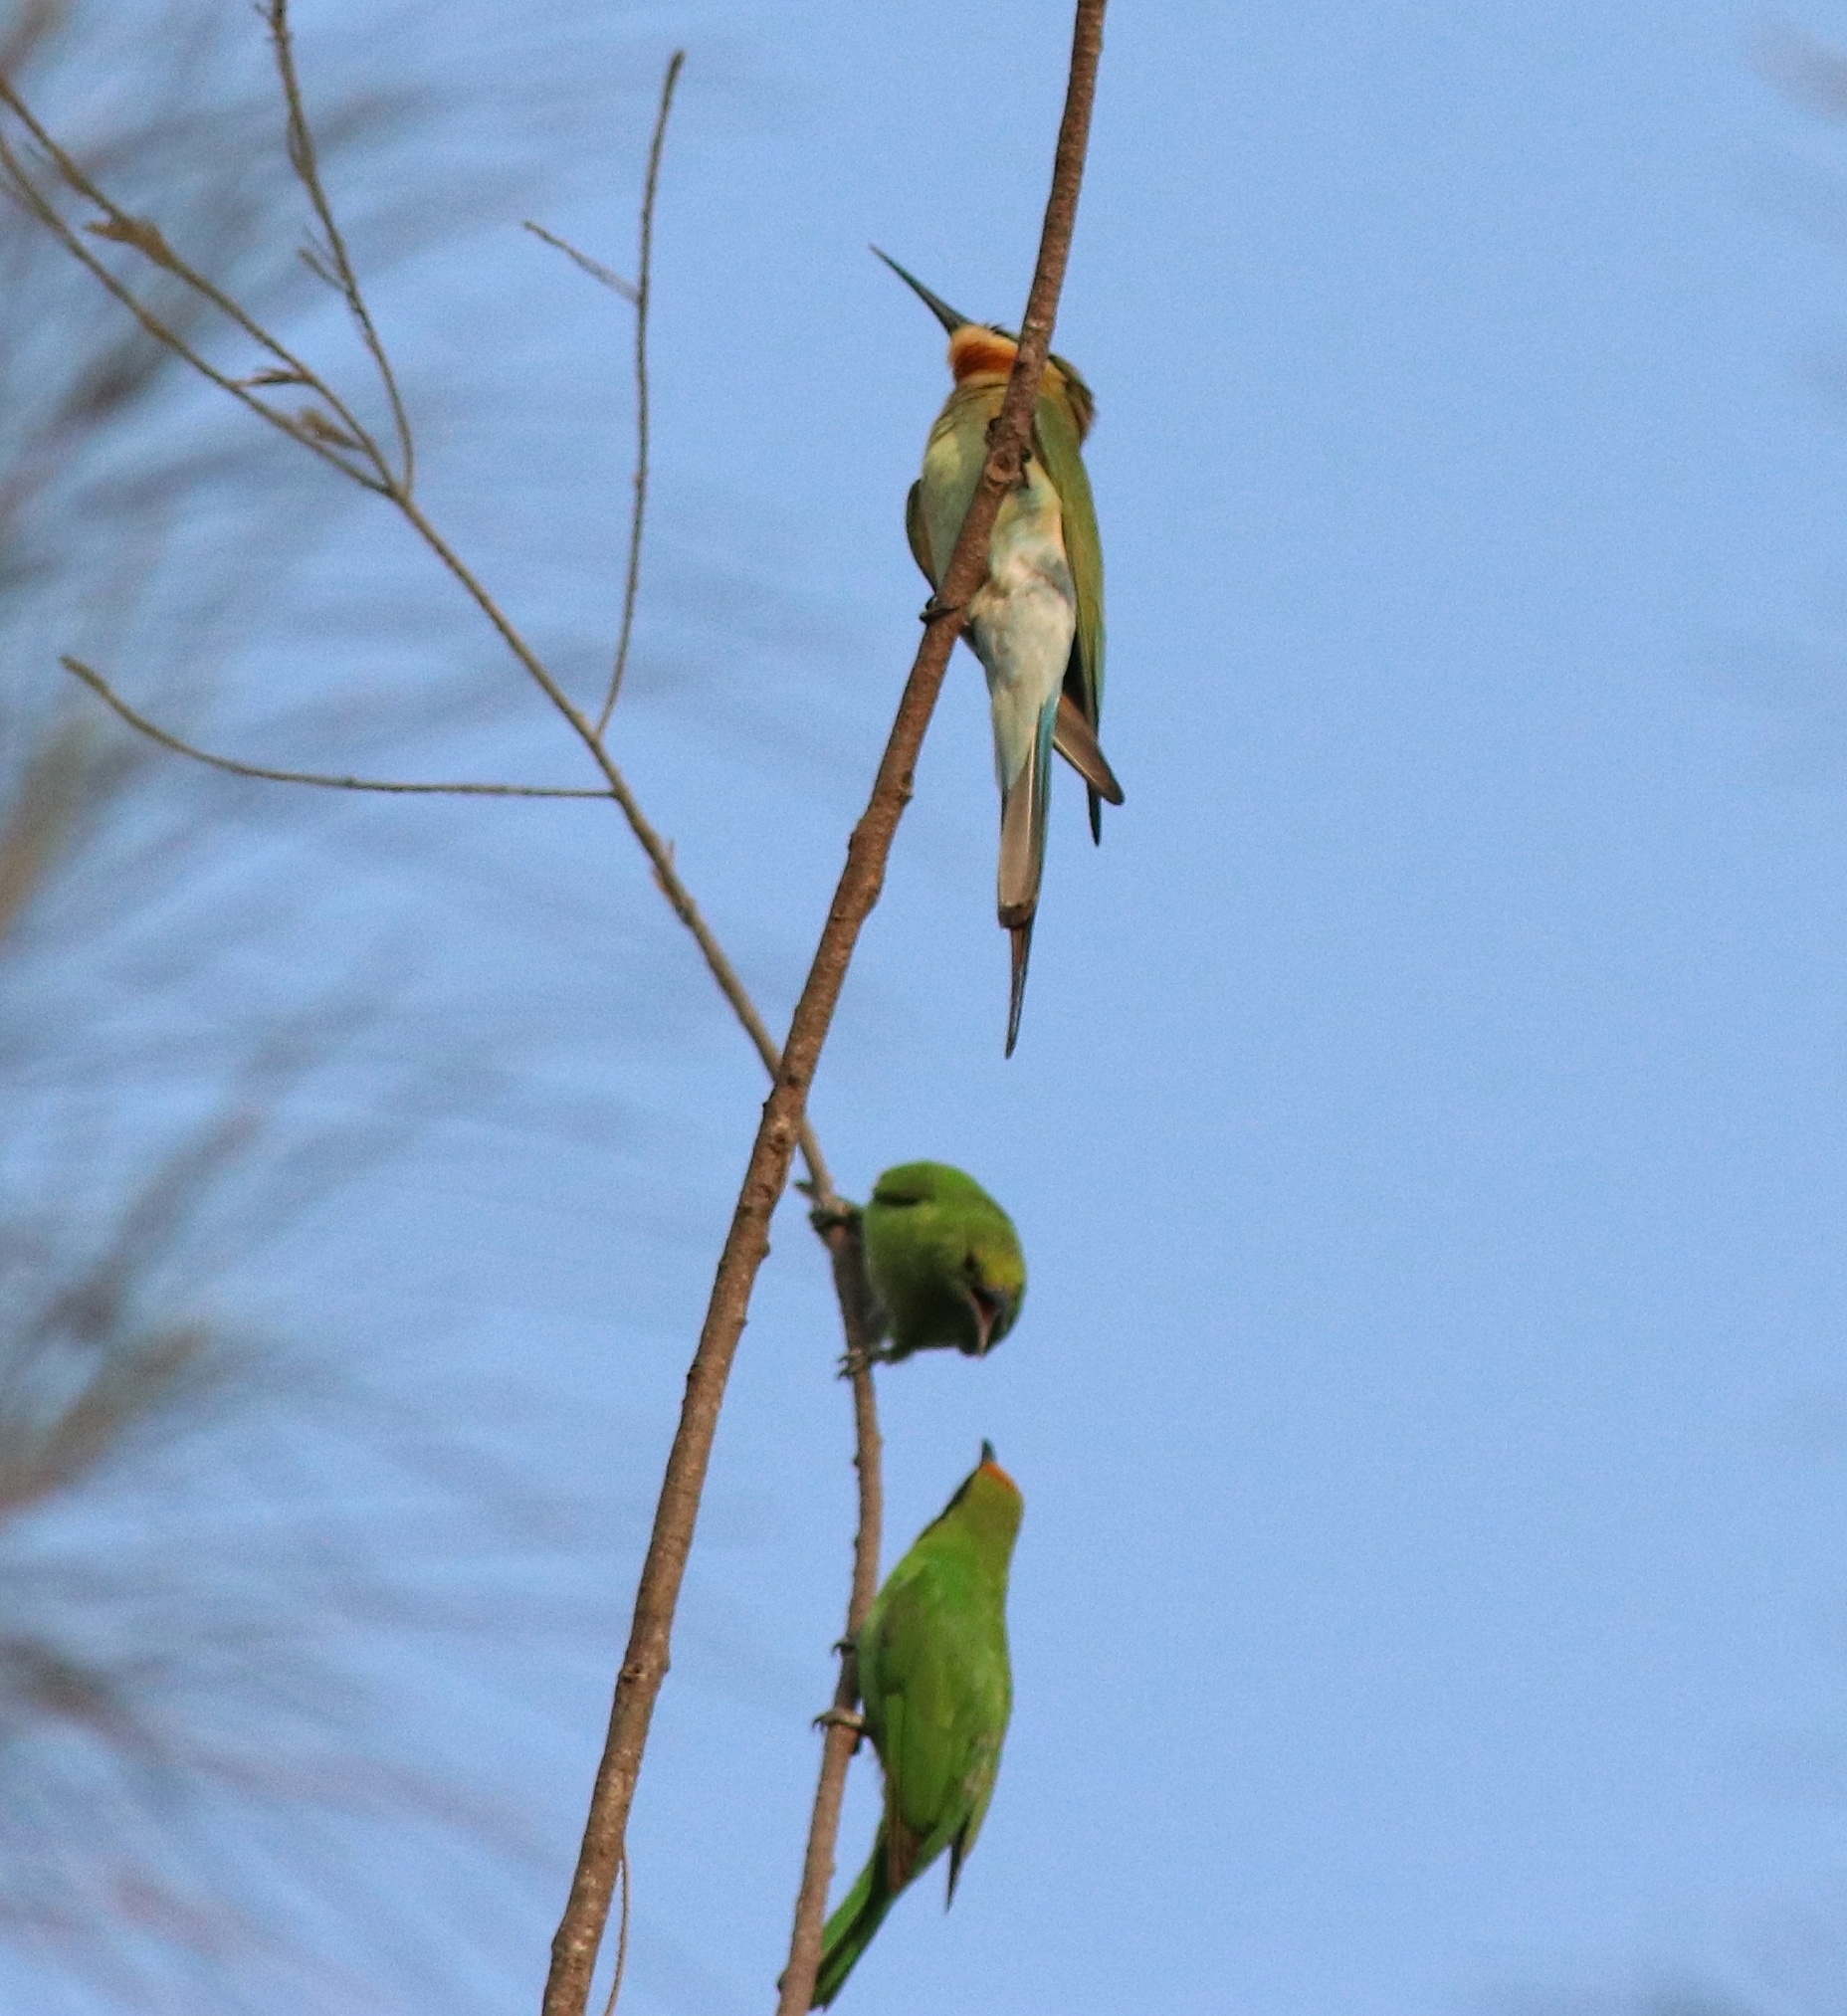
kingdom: Animalia
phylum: Chordata
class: Aves
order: Coraciiformes
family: Meropidae
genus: Merops
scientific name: Merops philippinus
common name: Blue-tailed bee-eater
